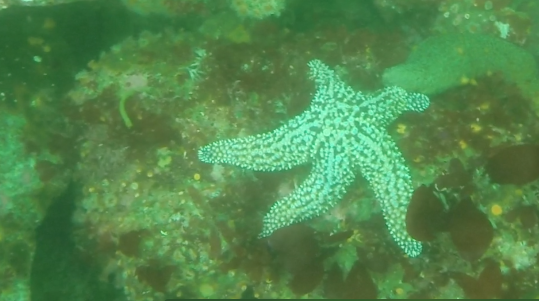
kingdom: Animalia
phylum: Echinodermata
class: Asteroidea
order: Forcipulatida
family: Asteriidae
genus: Pisaster
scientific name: Pisaster giganteus
